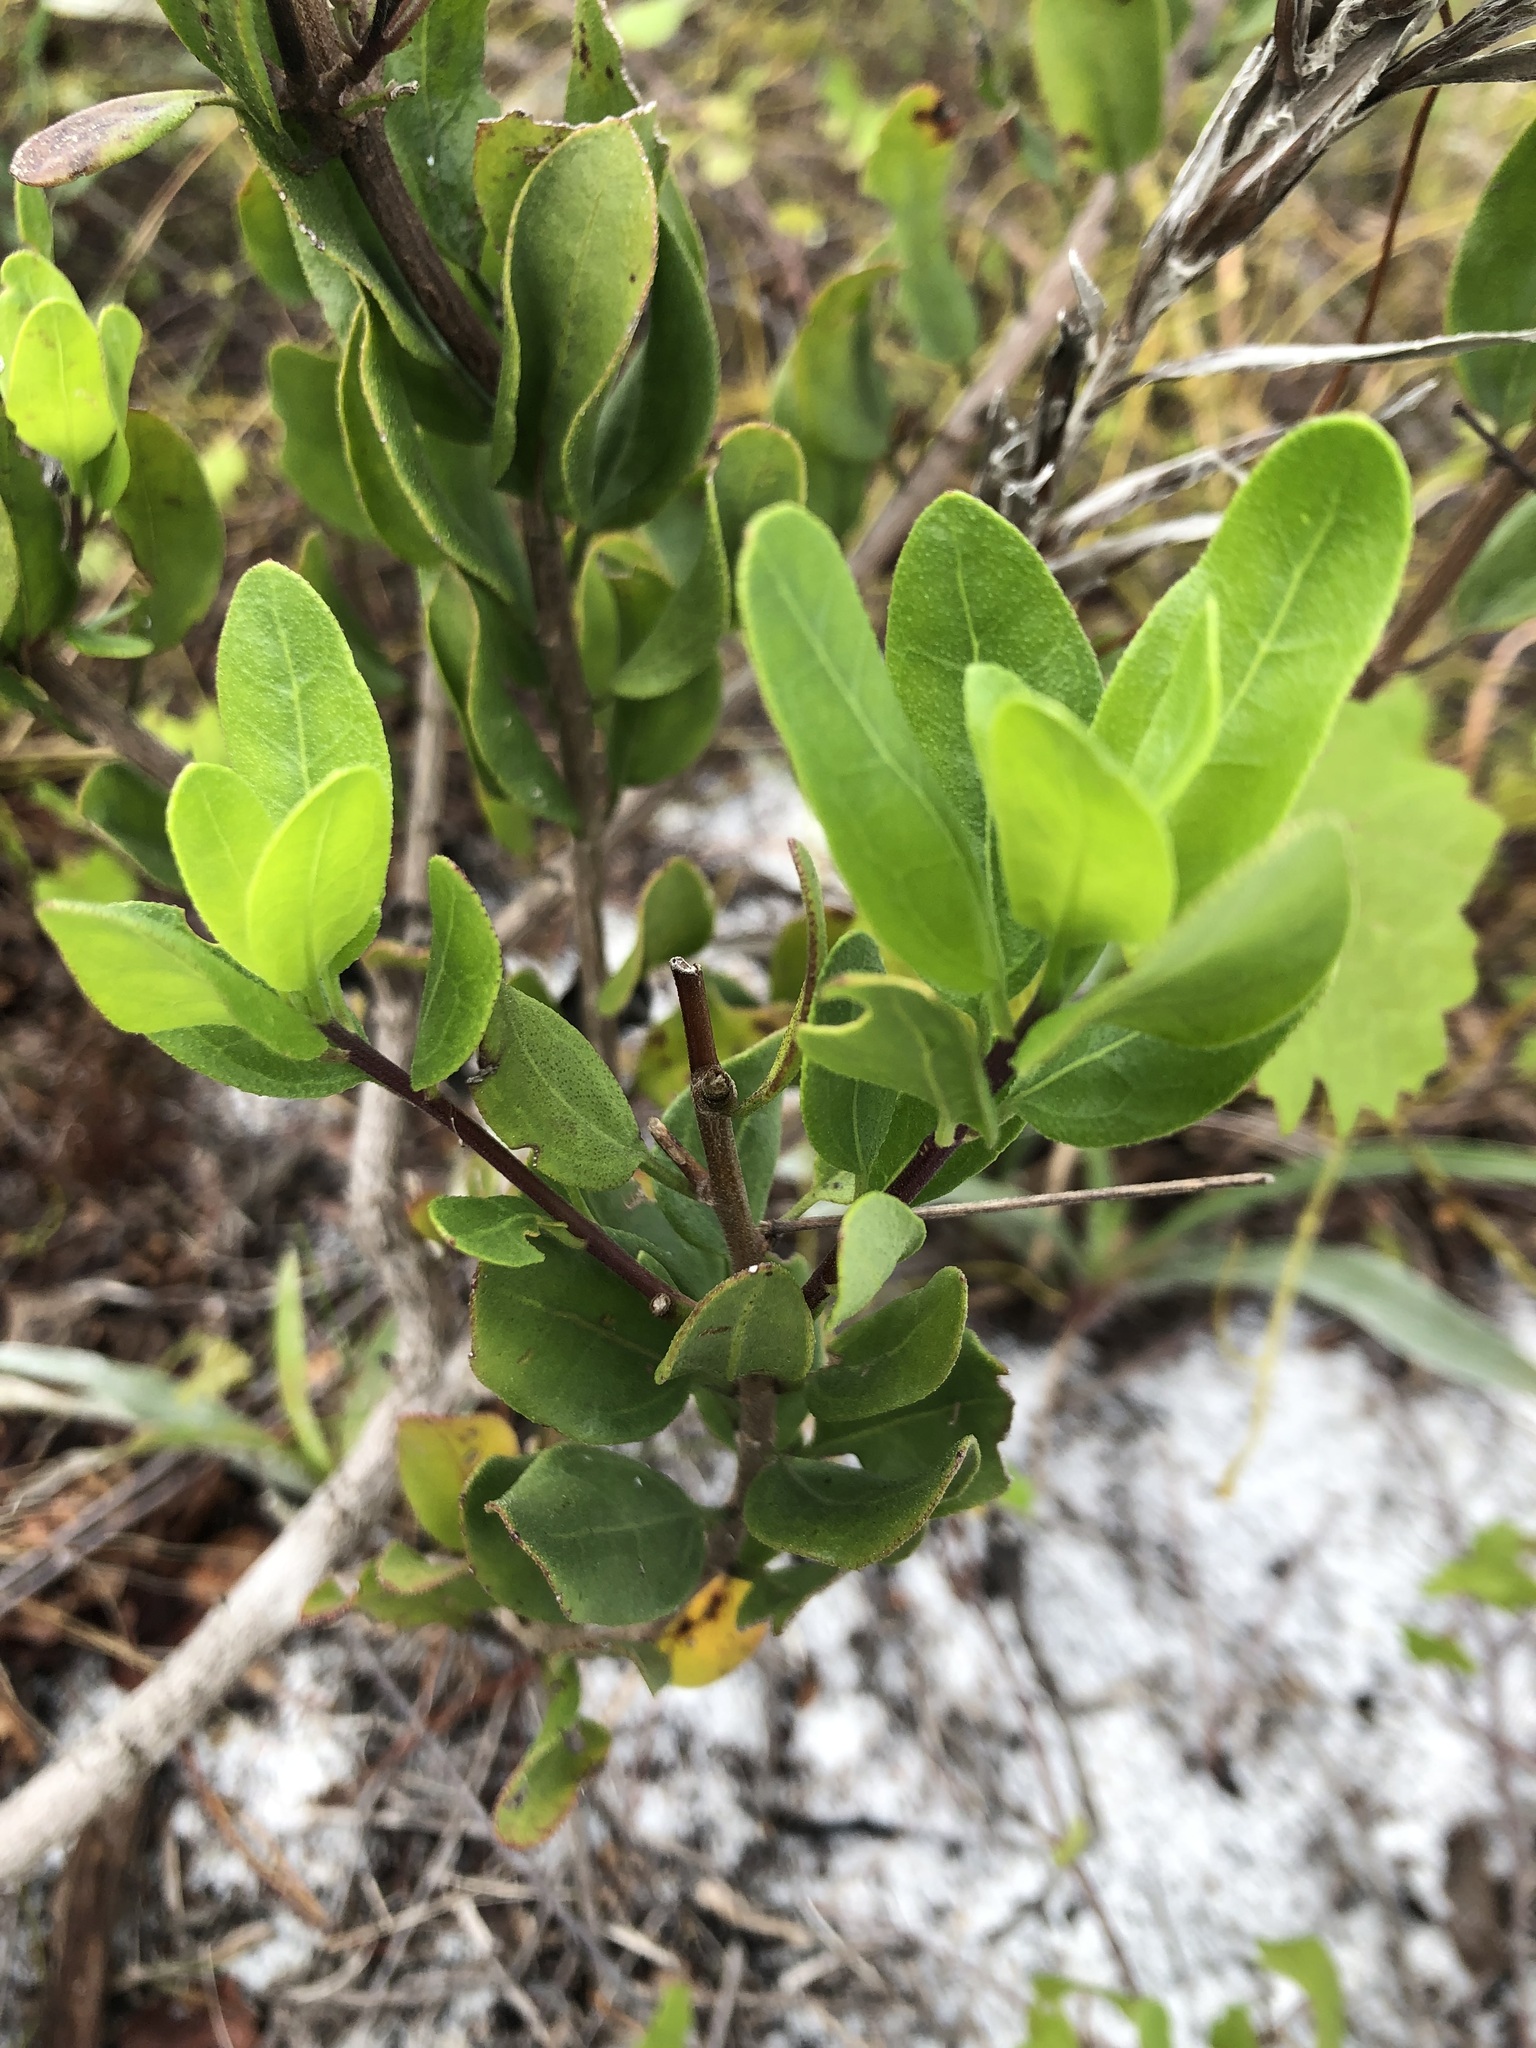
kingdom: Plantae
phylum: Tracheophyta
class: Magnoliopsida
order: Asterales
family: Asteraceae
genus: Palafoxia
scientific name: Palafoxia feayi
